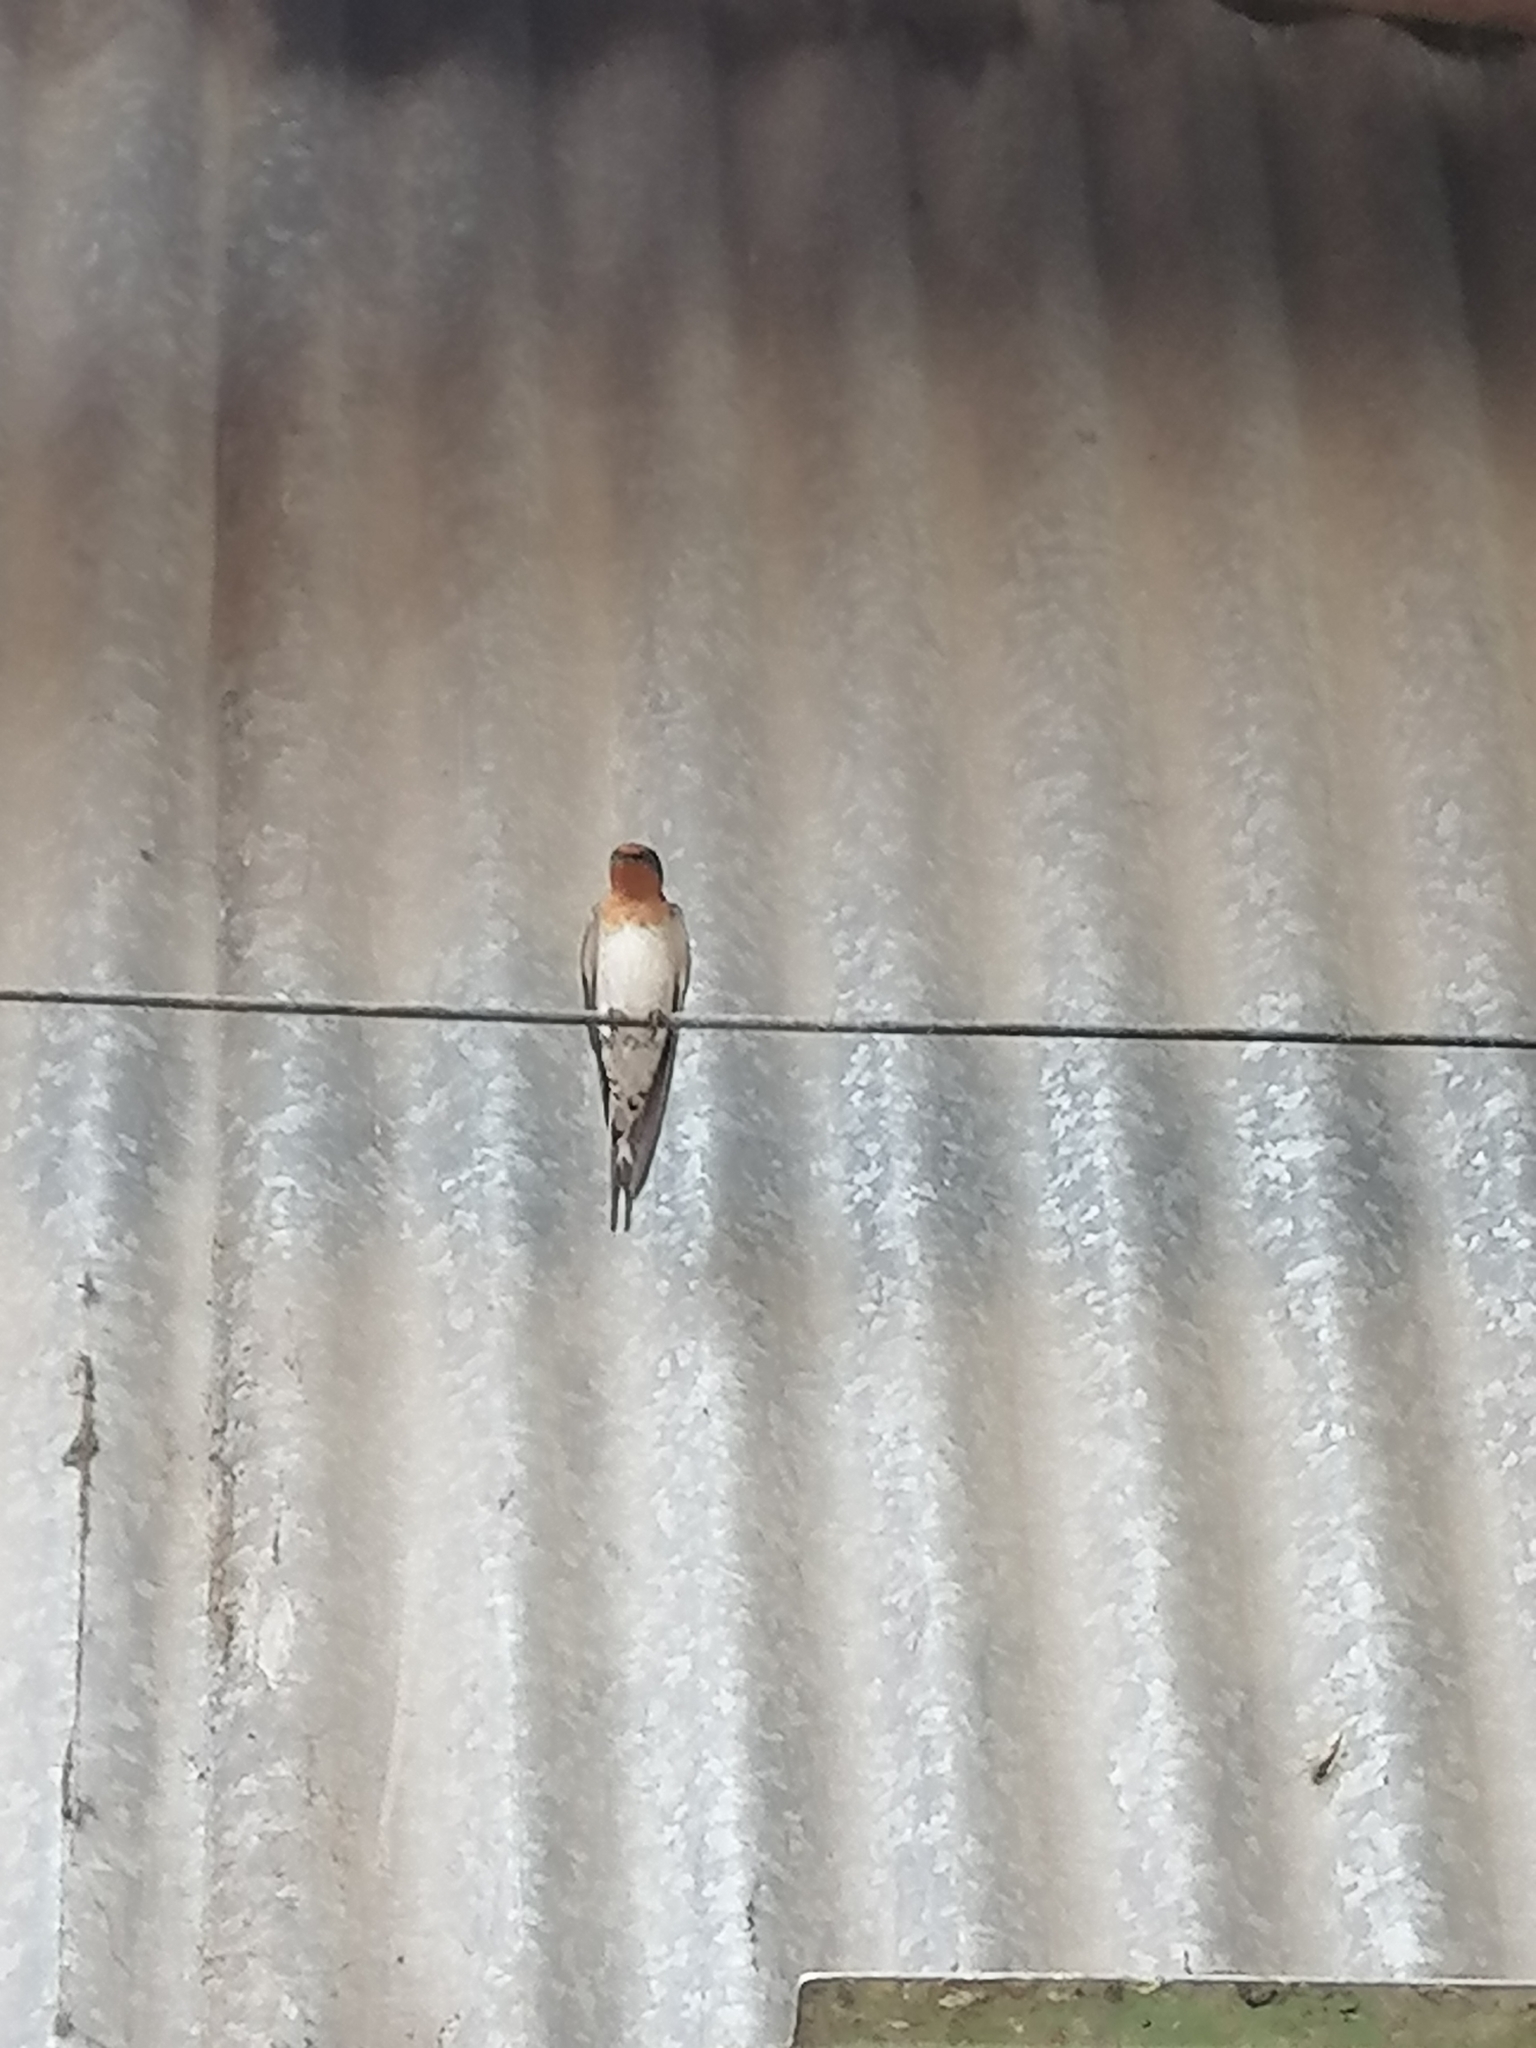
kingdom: Animalia
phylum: Chordata
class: Aves
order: Passeriformes
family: Hirundinidae
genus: Hirundo
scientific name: Hirundo neoxena
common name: Welcome swallow
